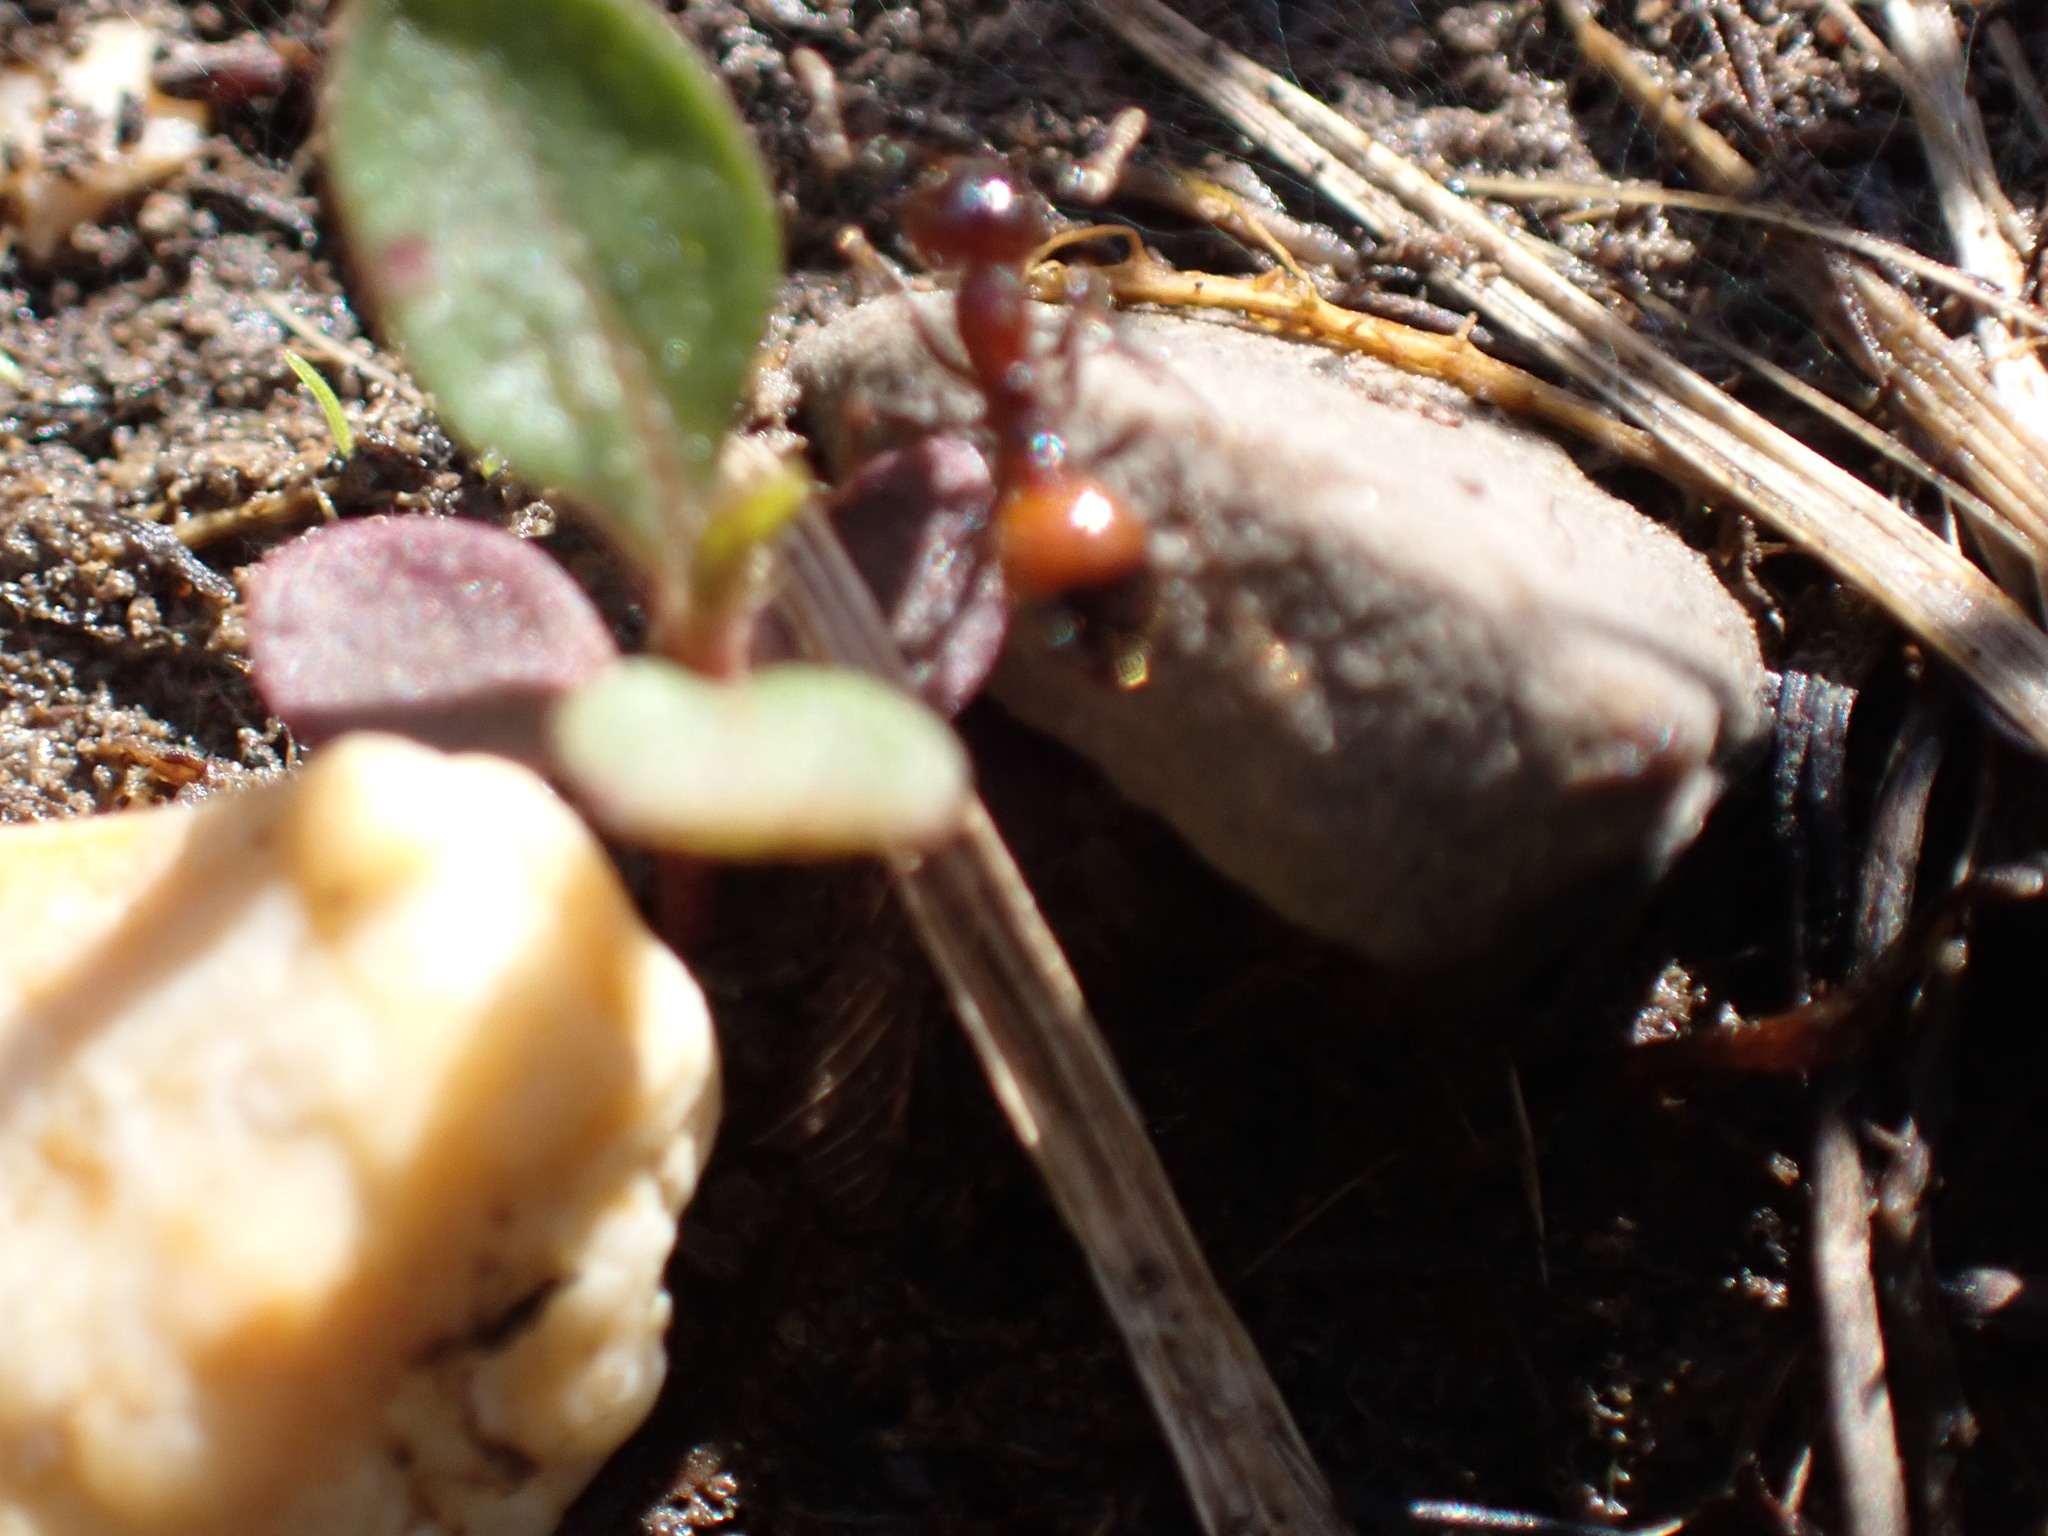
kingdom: Animalia
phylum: Arthropoda
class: Insecta
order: Hymenoptera
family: Formicidae
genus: Solenopsis
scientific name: Solenopsis
